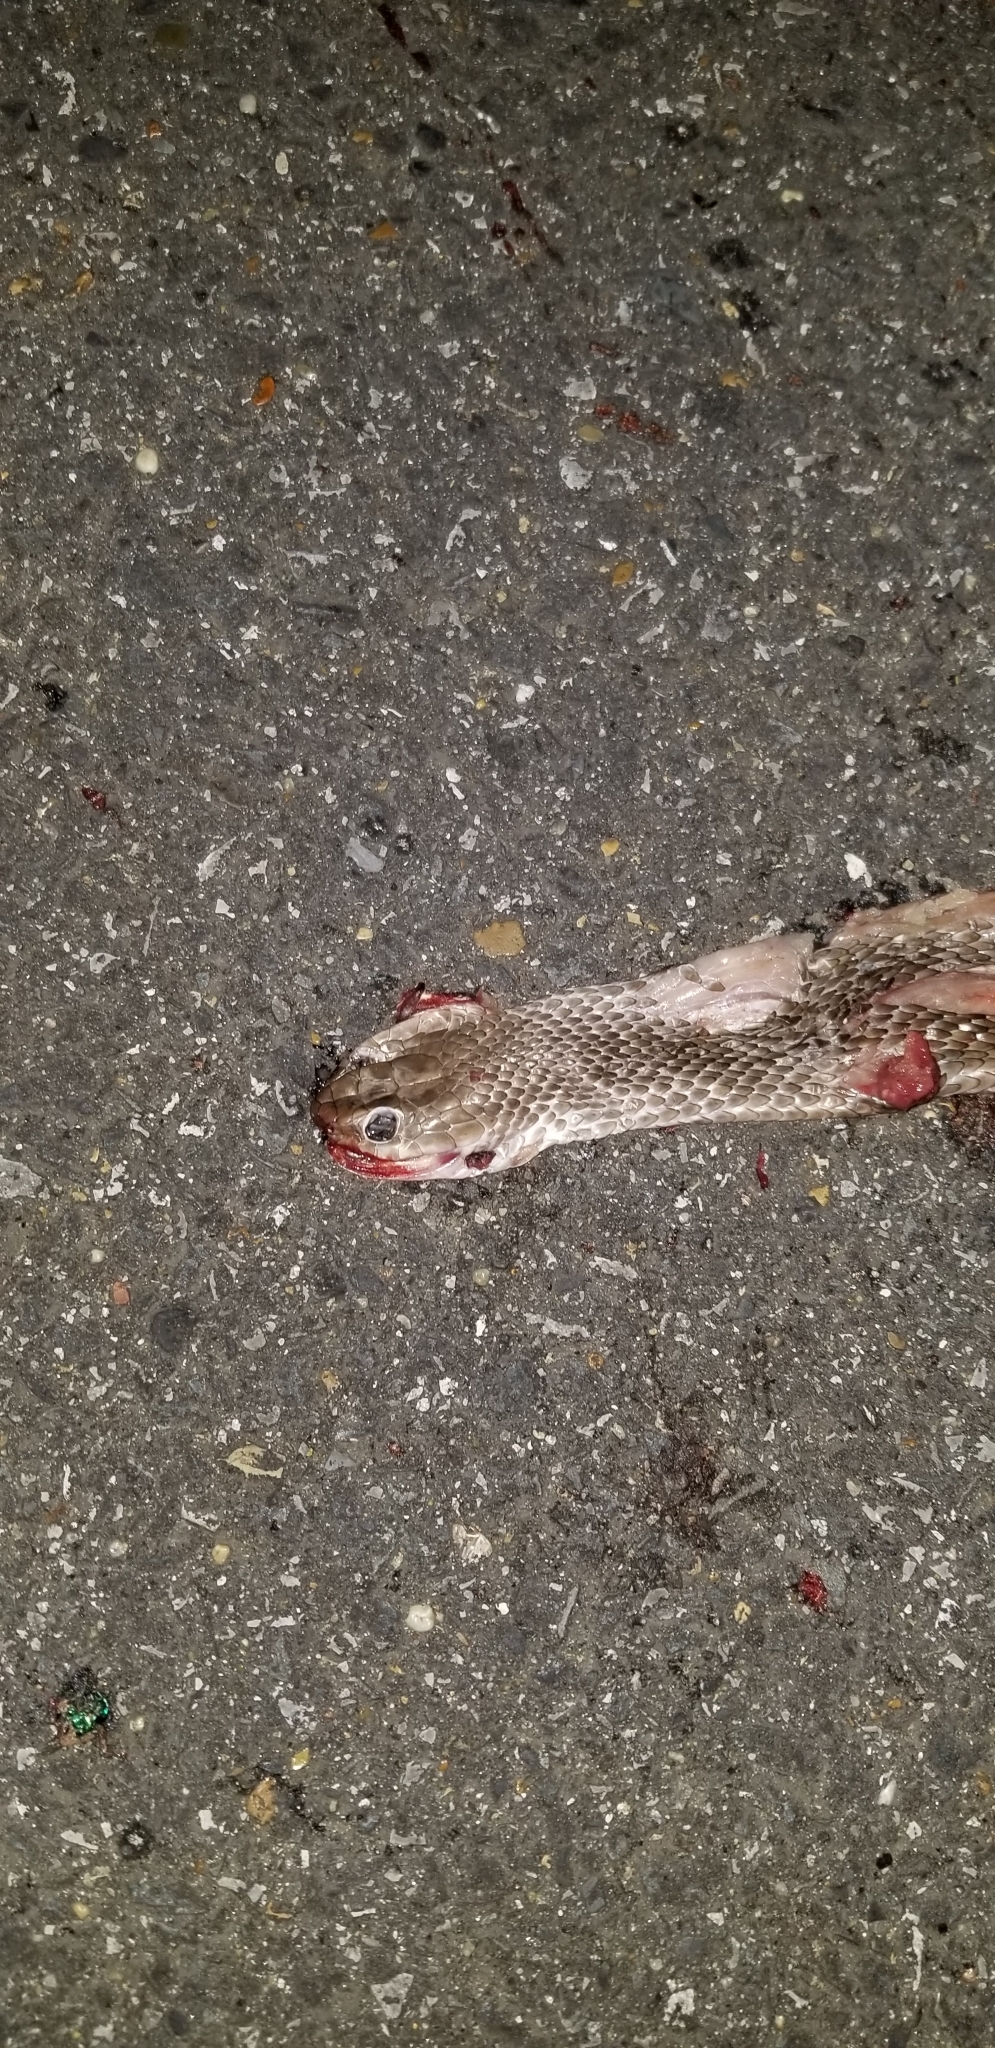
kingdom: Animalia
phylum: Chordata
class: Squamata
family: Colubridae
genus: Coluber
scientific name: Coluber constrictor
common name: Eastern racer
